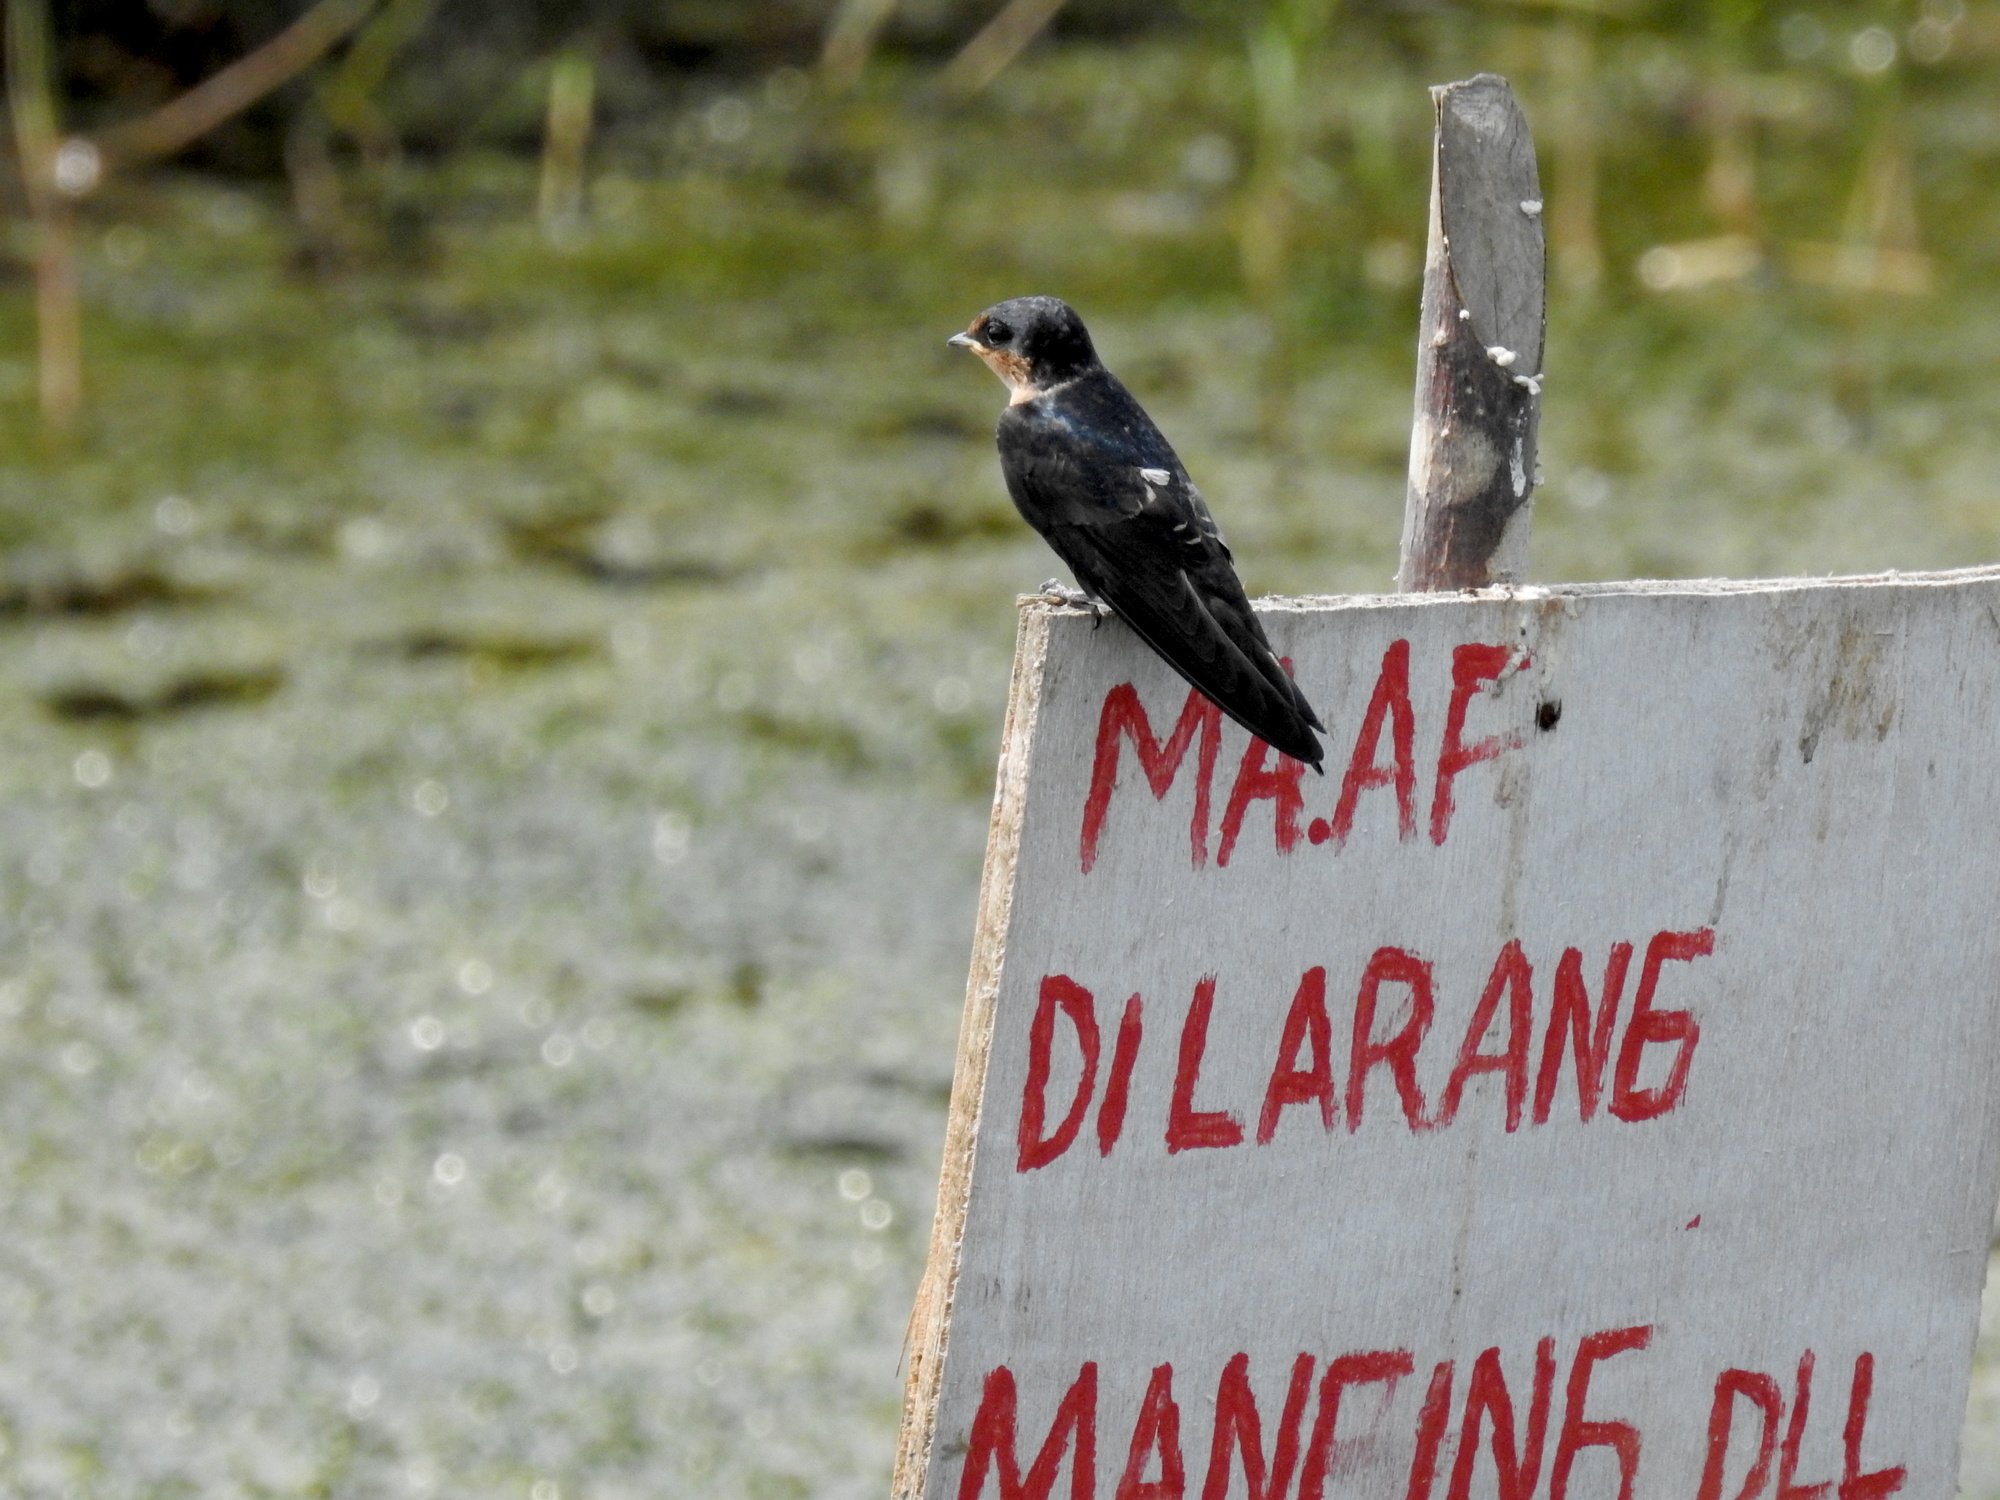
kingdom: Animalia
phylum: Chordata
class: Aves
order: Passeriformes
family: Hirundinidae
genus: Hirundo
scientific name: Hirundo tahitica
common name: Pacific swallow
